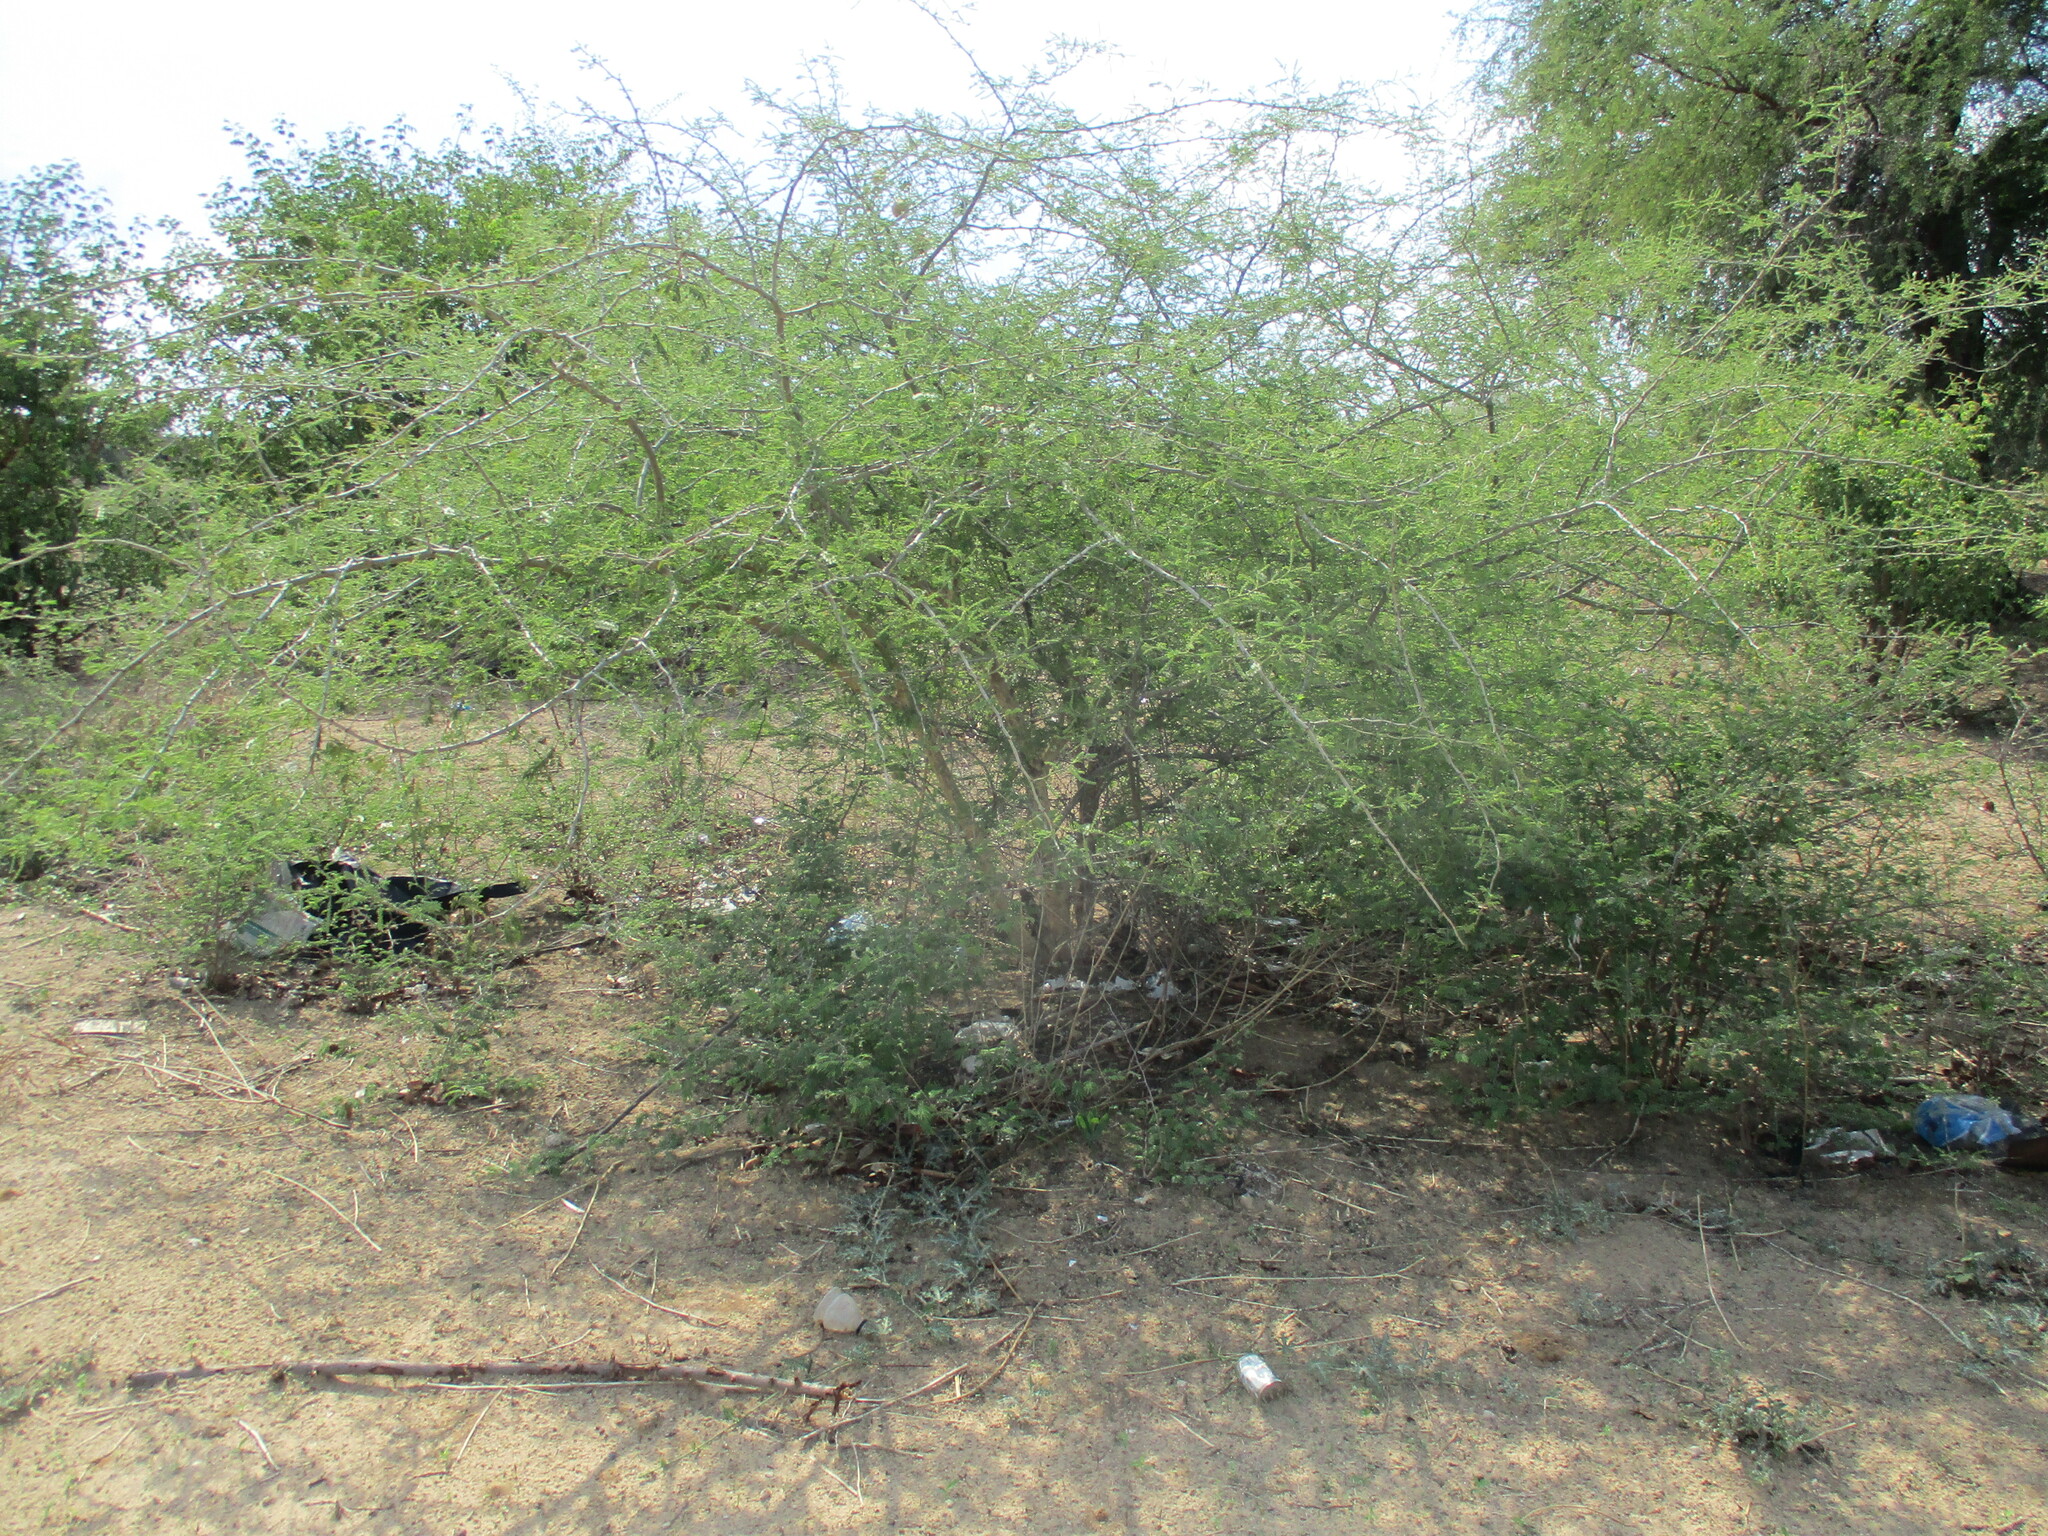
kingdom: Plantae
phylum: Tracheophyta
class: Magnoliopsida
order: Fabales
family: Fabaceae
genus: Senegalia
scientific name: Senegalia fleckii
